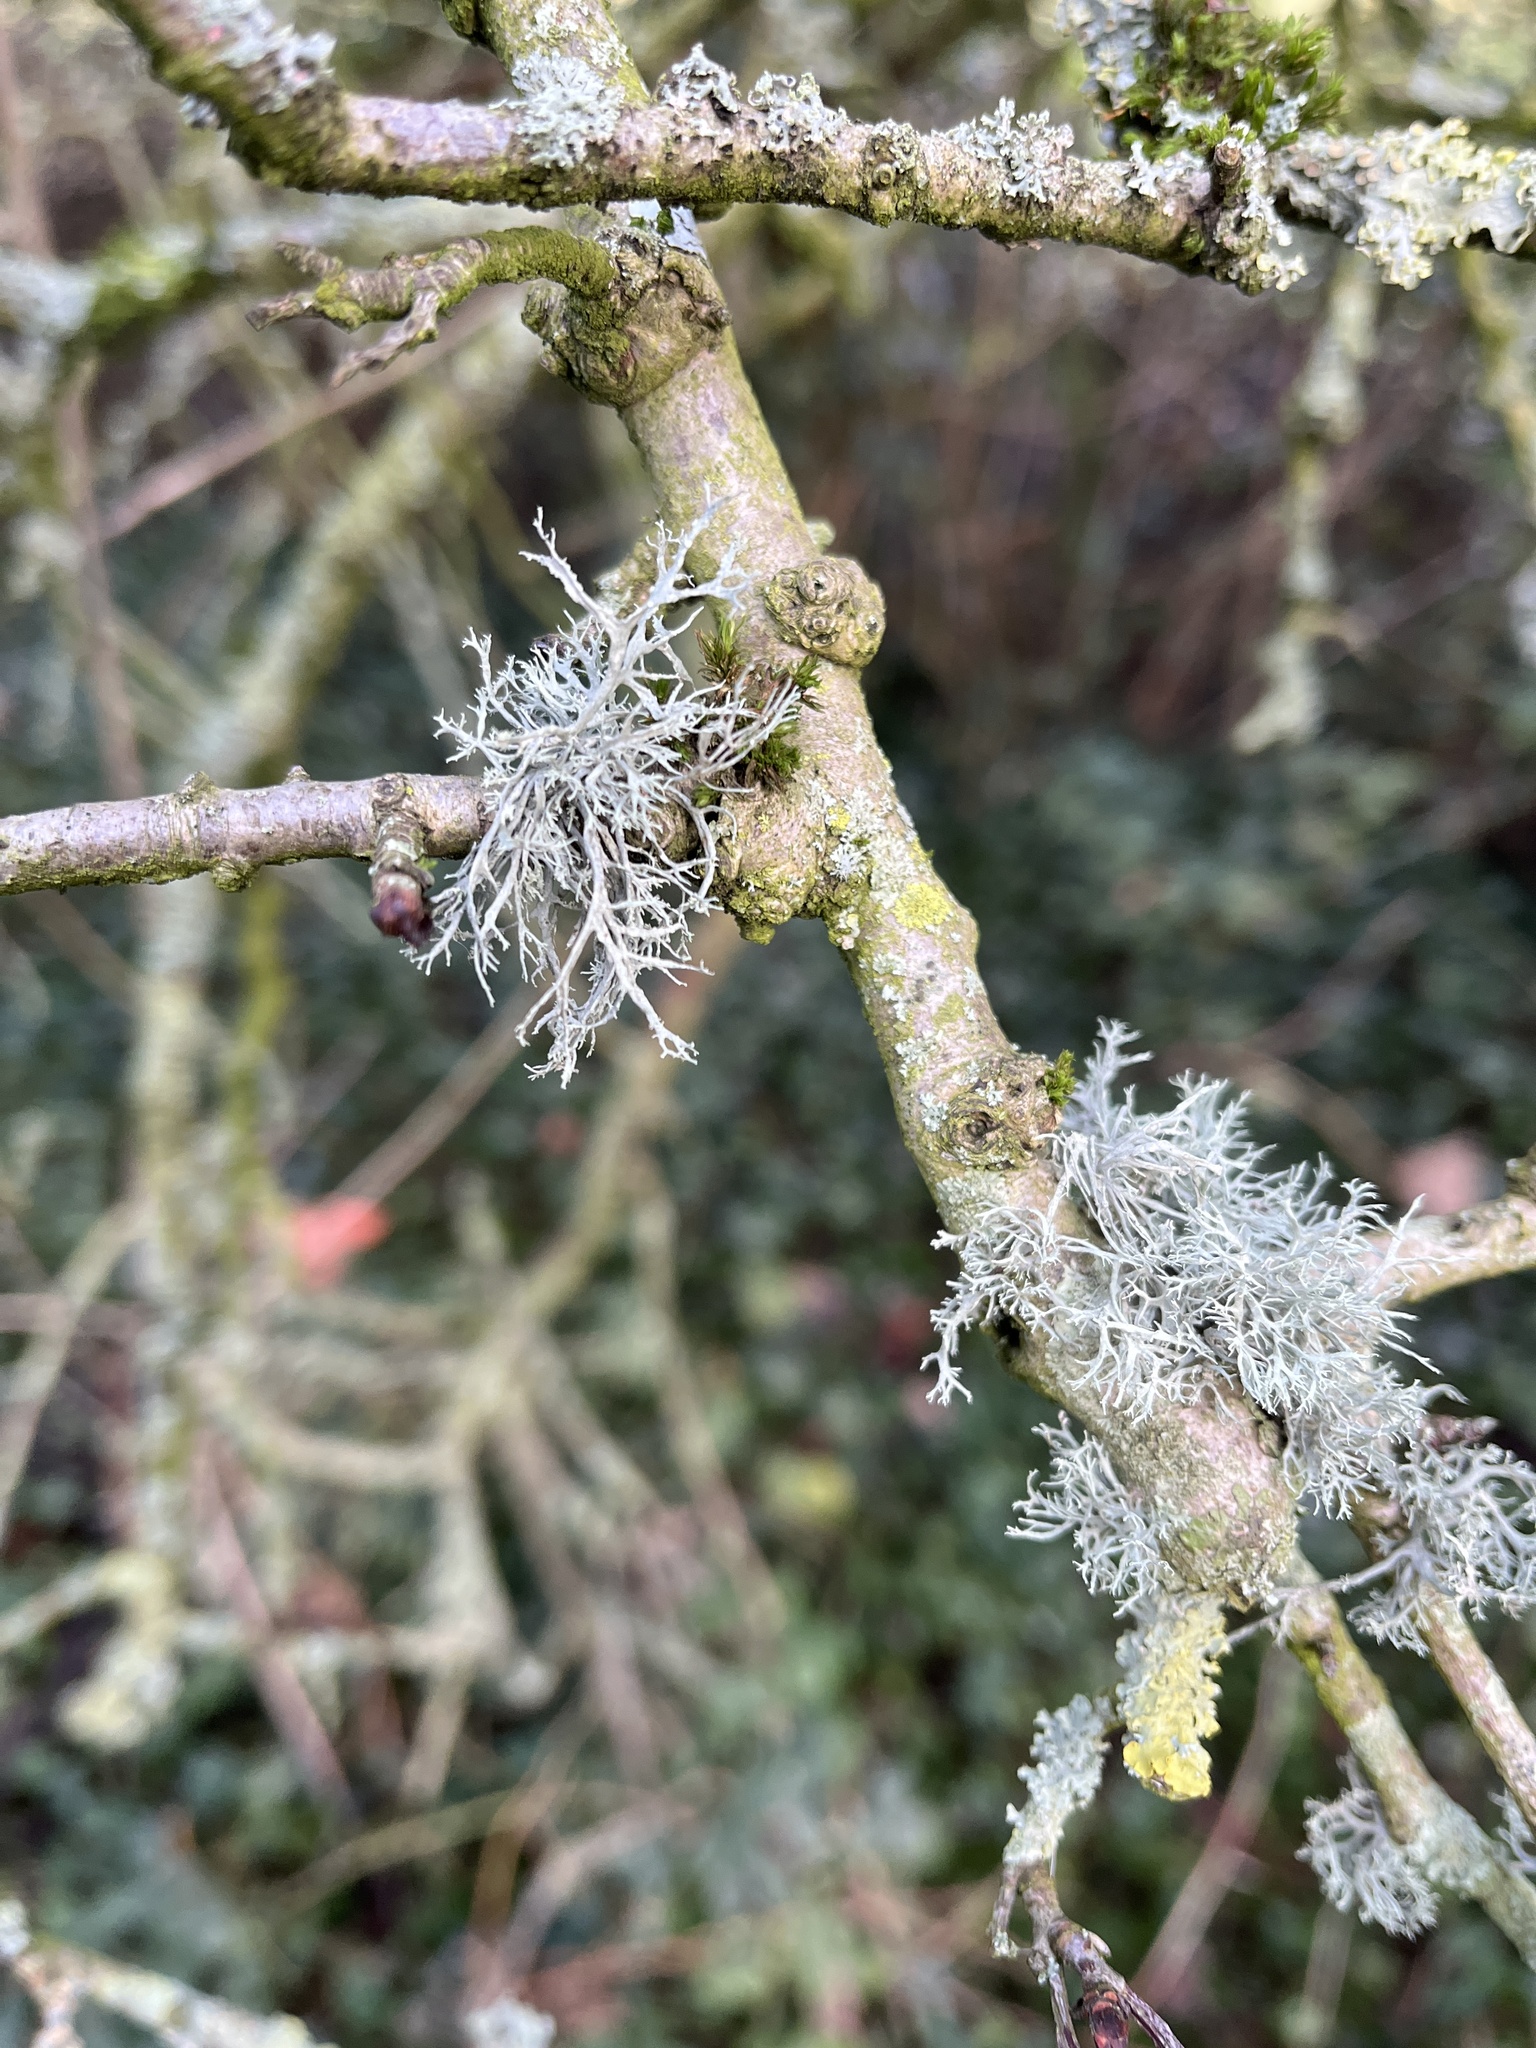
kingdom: Fungi
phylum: Ascomycota
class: Lecanoromycetes
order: Lecanorales
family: Ramalinaceae
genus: Ramalina
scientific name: Ramalina farinacea
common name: Farinose cartilage lichen
